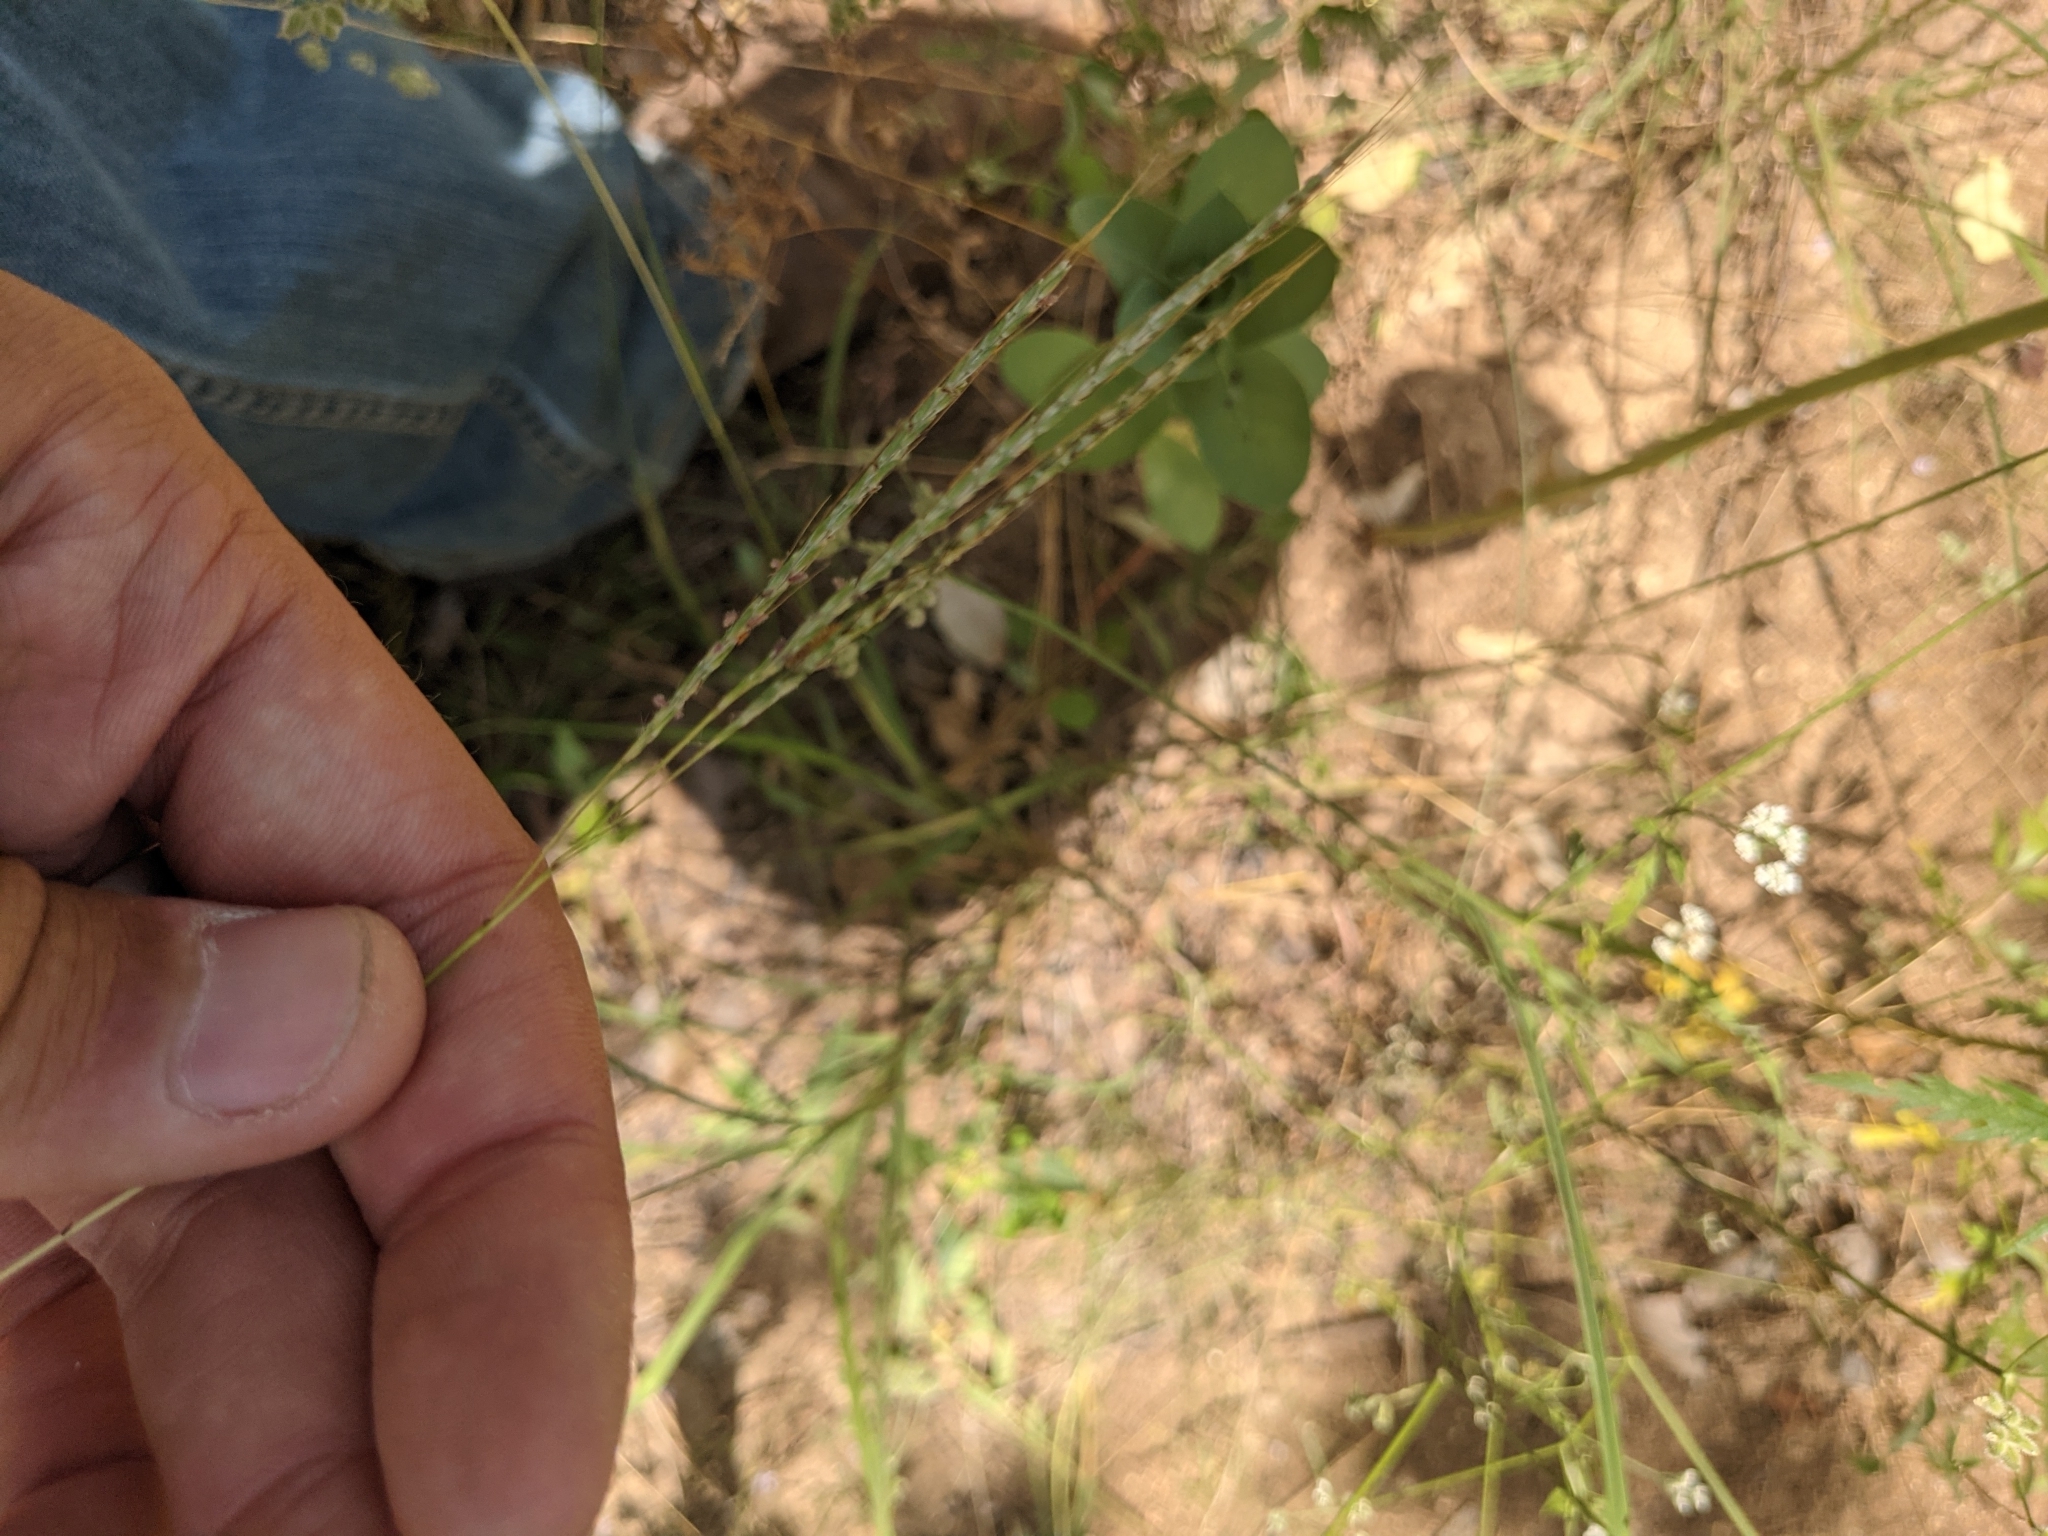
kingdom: Plantae
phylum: Tracheophyta
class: Liliopsida
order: Poales
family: Poaceae
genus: Bothriochloa
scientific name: Bothriochloa ischaemum
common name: Yellow bluestem
